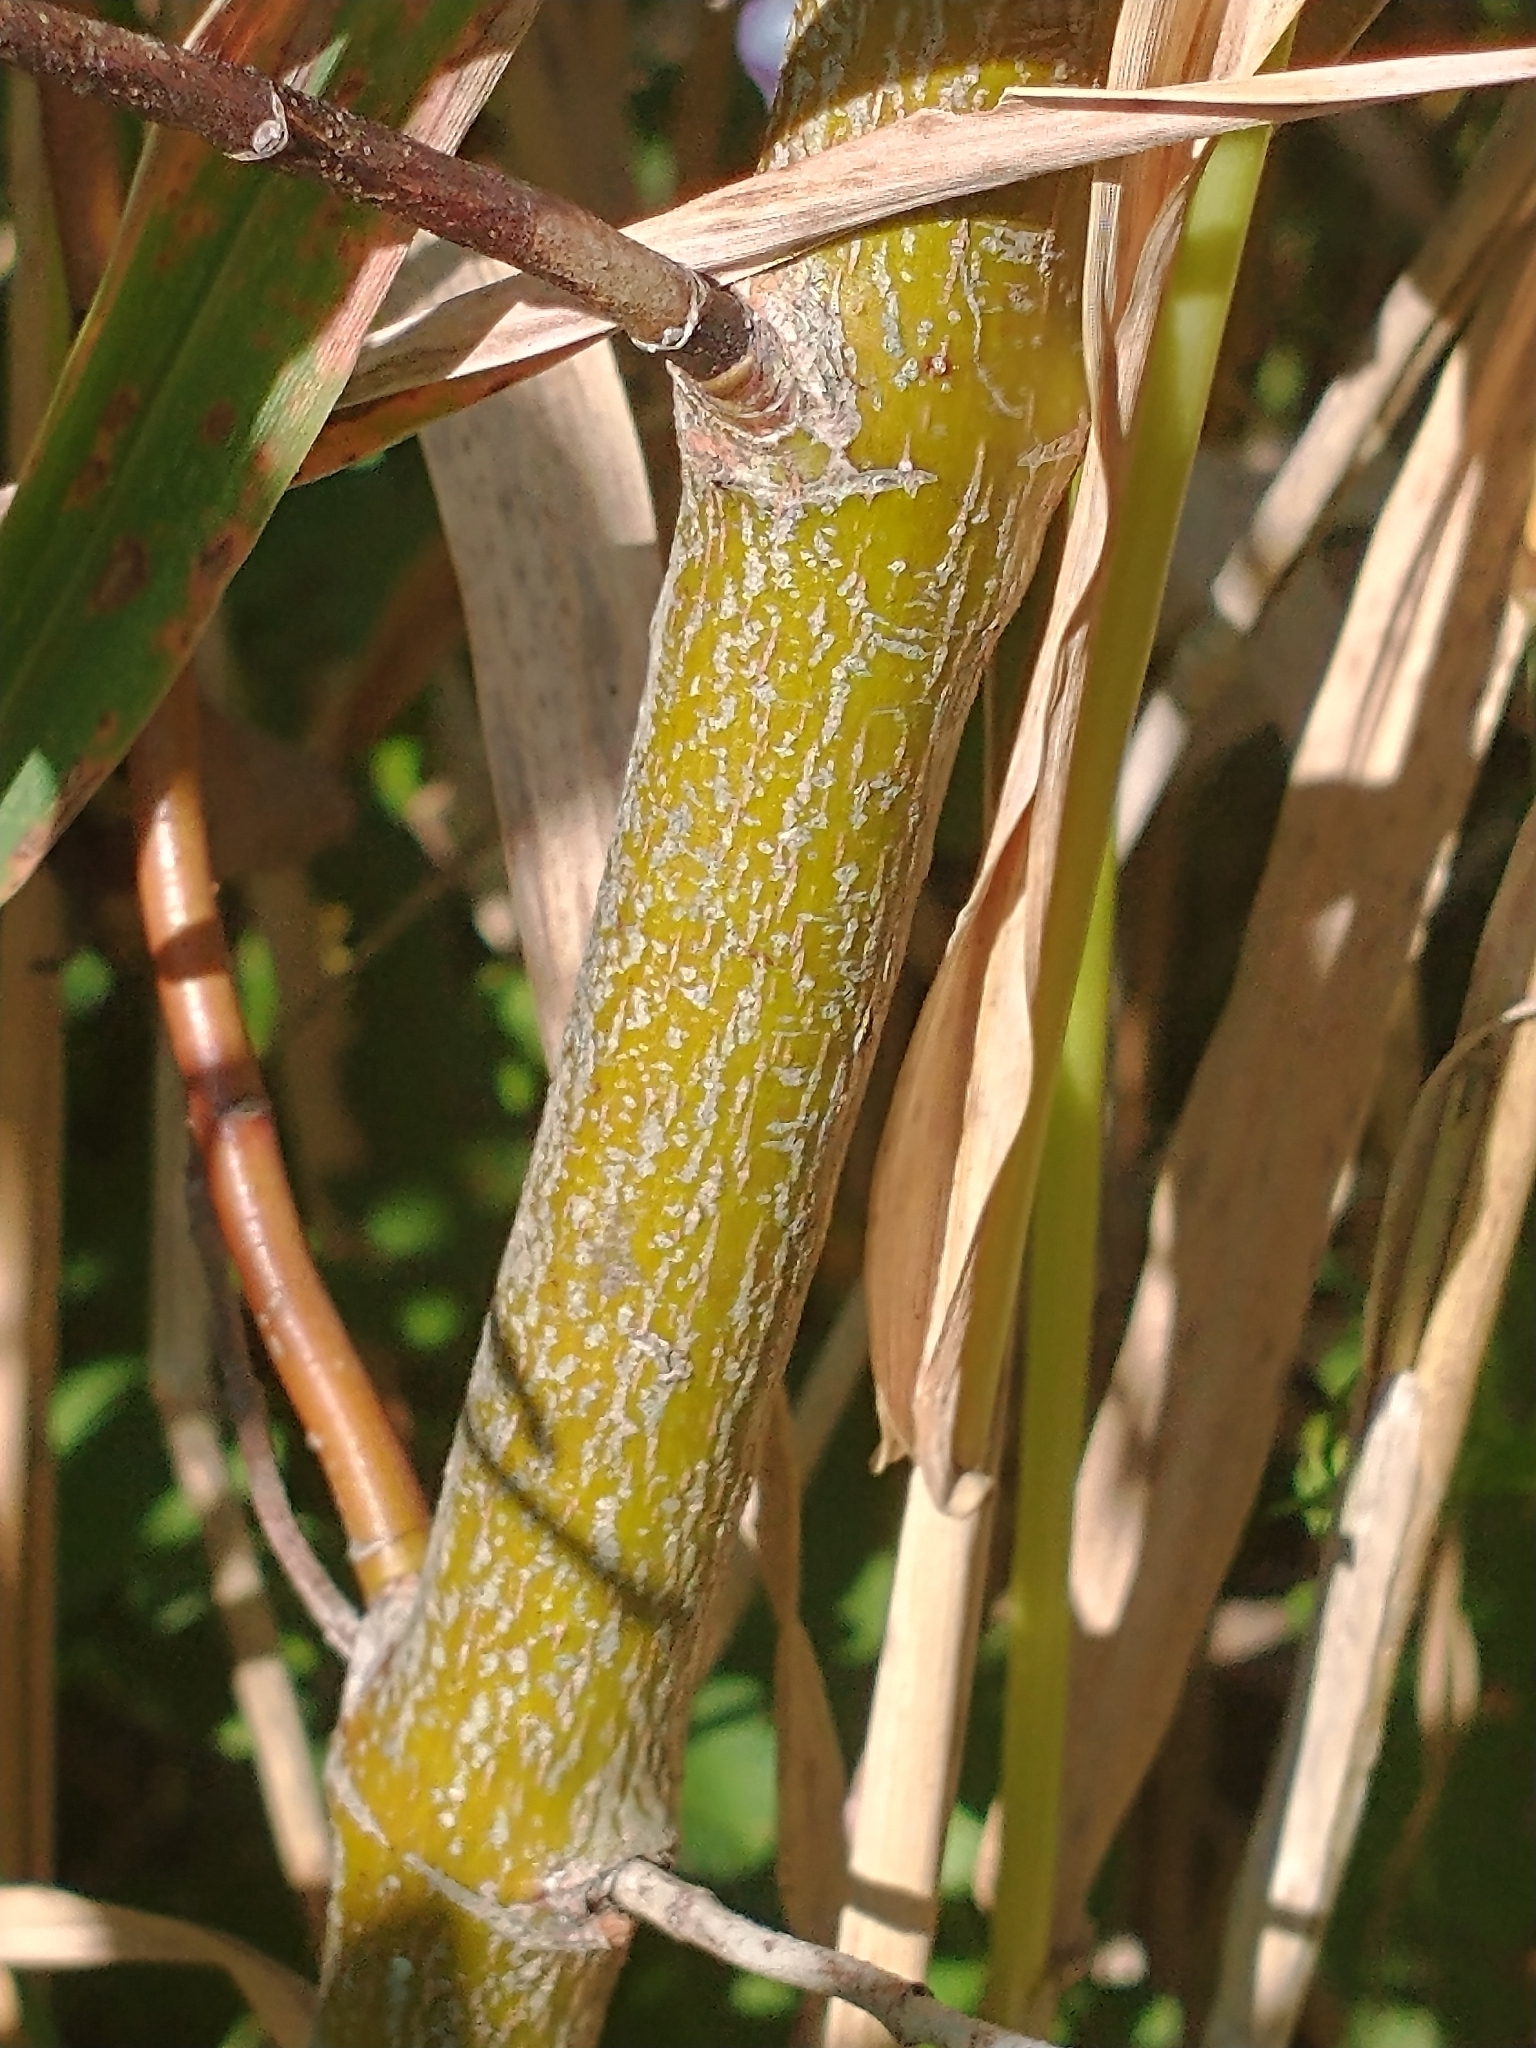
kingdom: Plantae
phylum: Tracheophyta
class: Magnoliopsida
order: Cornales
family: Cornaceae
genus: Cornus
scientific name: Cornus amomum
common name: Silky dogwood
